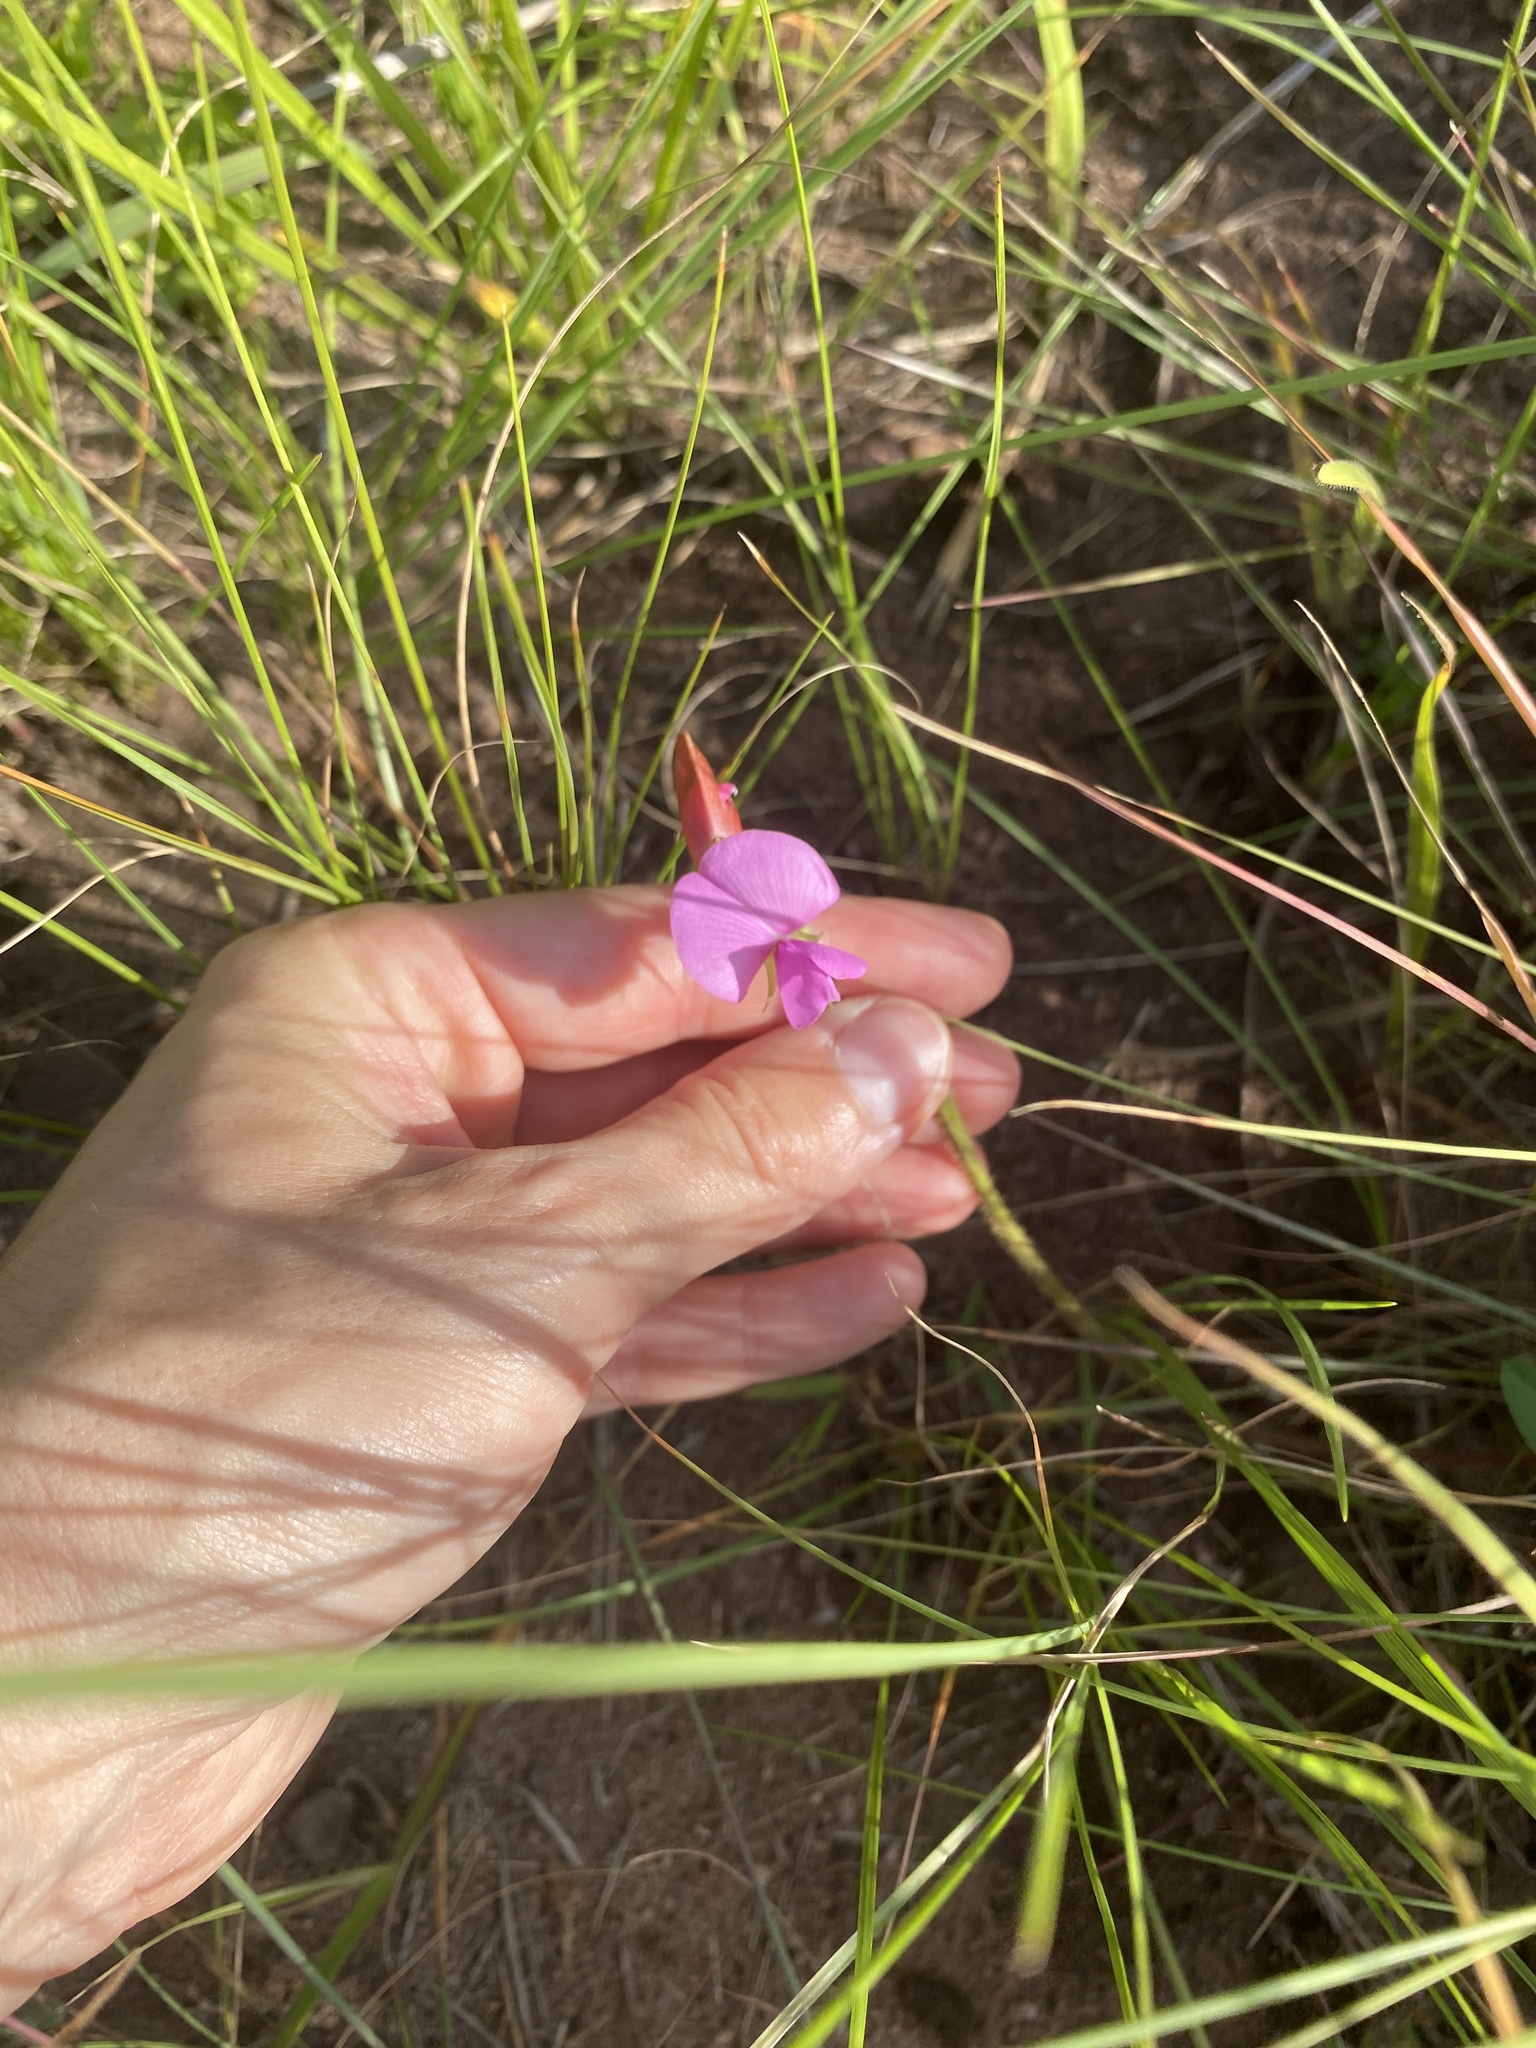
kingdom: Plantae
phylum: Tracheophyta
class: Magnoliopsida
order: Fabales
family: Fabaceae
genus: Vigna
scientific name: Vigna vexillata
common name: Zombi pea
